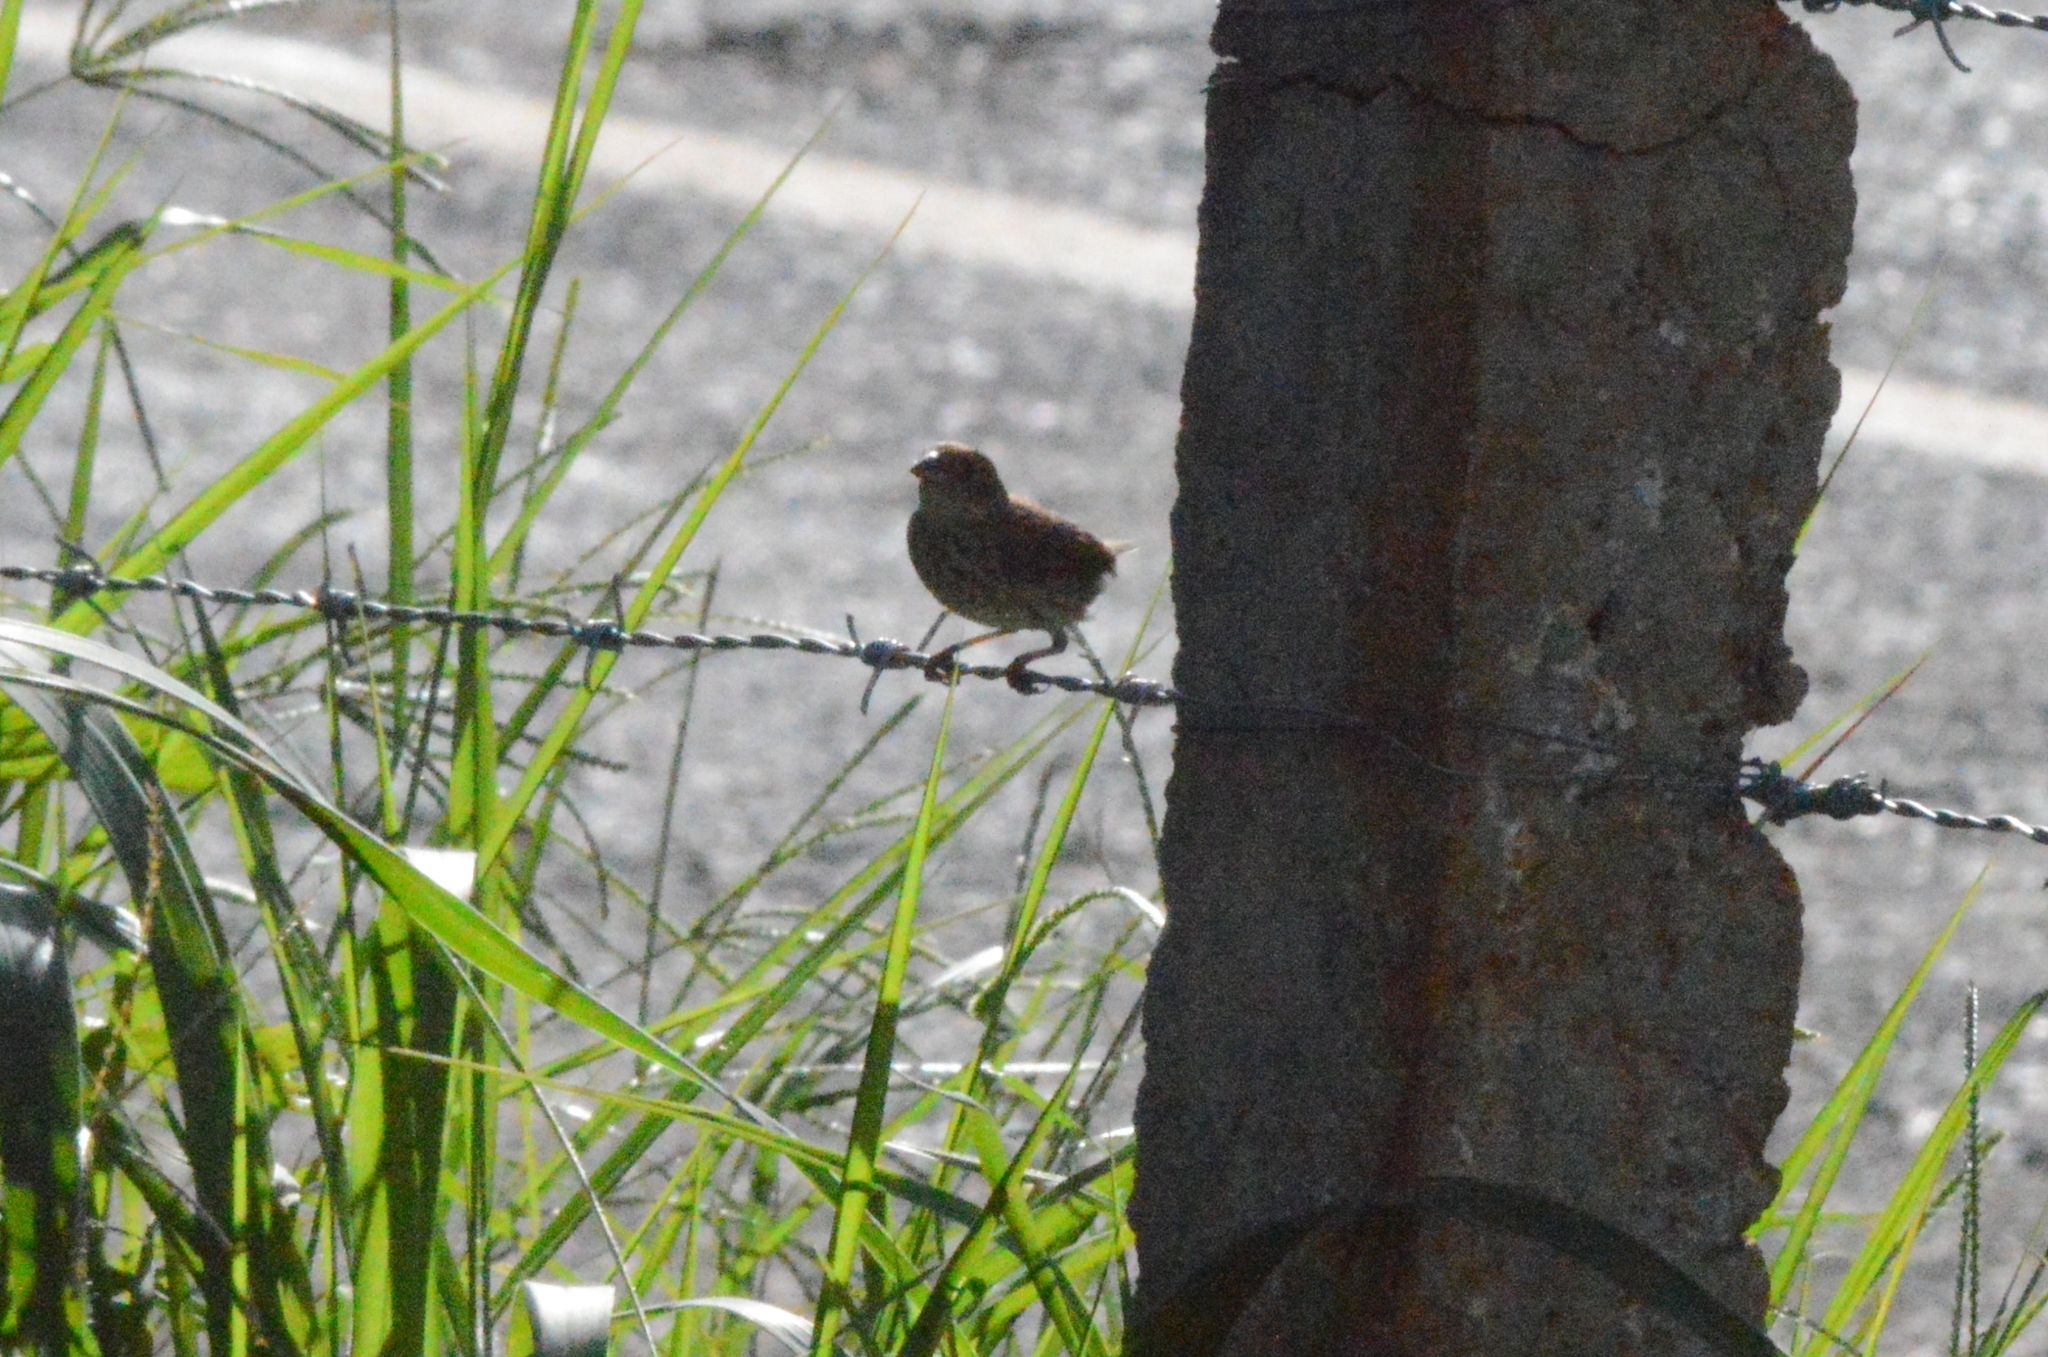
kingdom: Animalia
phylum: Chordata
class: Aves
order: Passeriformes
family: Thraupidae
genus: Volatinia
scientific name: Volatinia jacarina
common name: Blue-black grassquit
